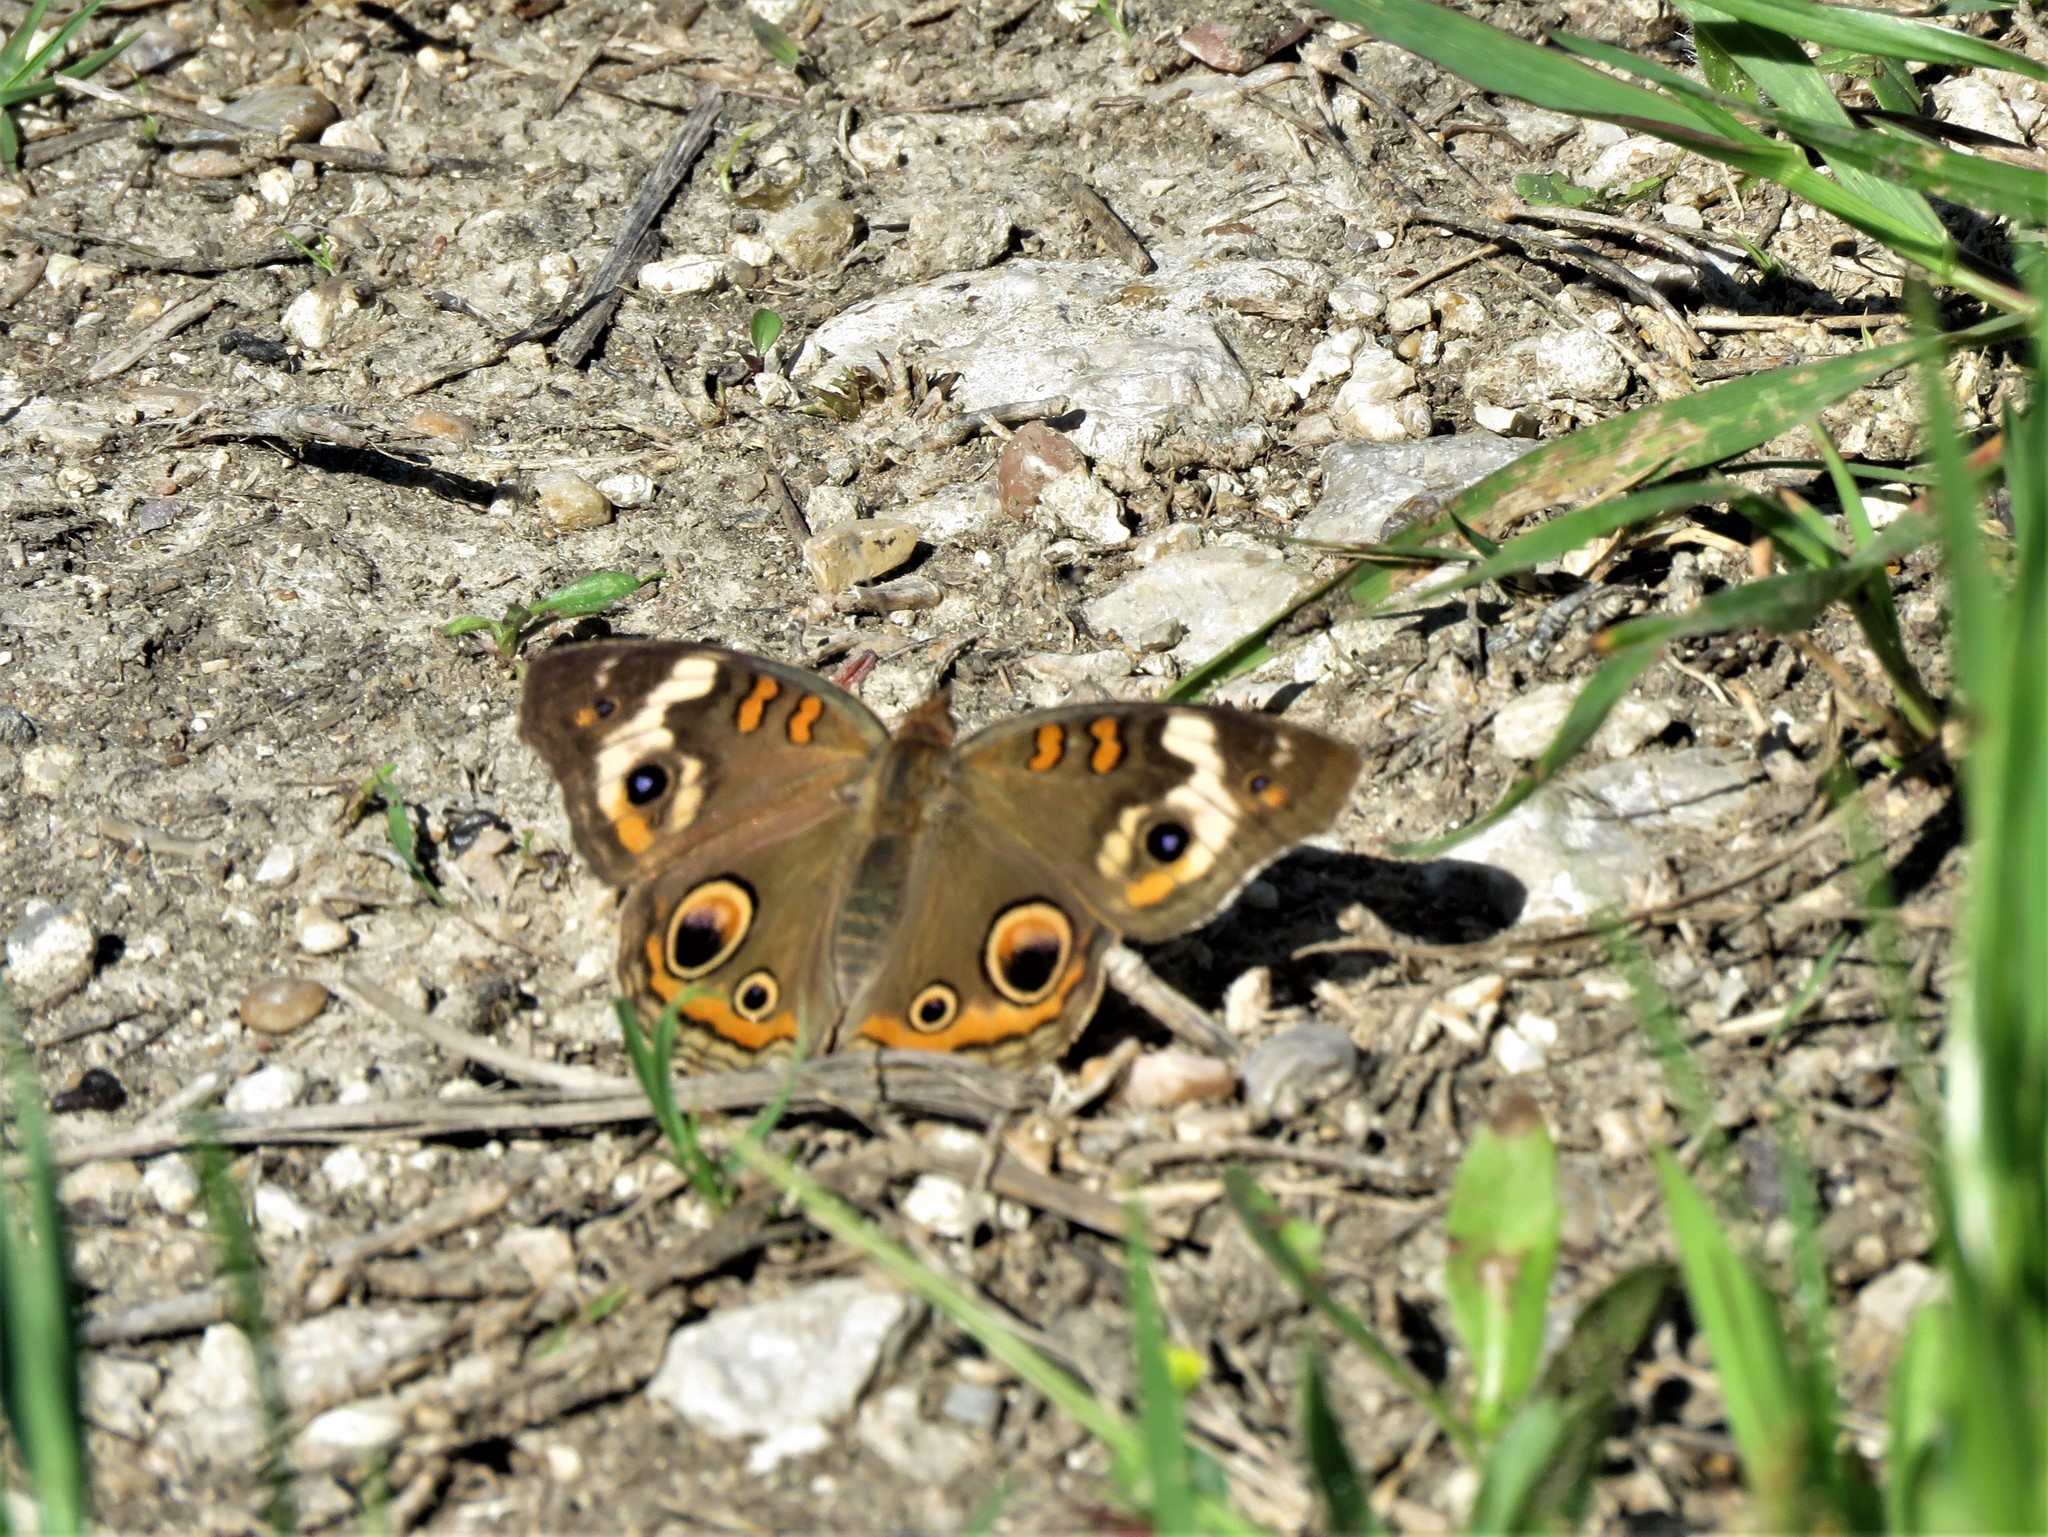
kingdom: Animalia
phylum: Arthropoda
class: Insecta
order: Lepidoptera
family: Nymphalidae
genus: Junonia
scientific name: Junonia coenia
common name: Common buckeye
